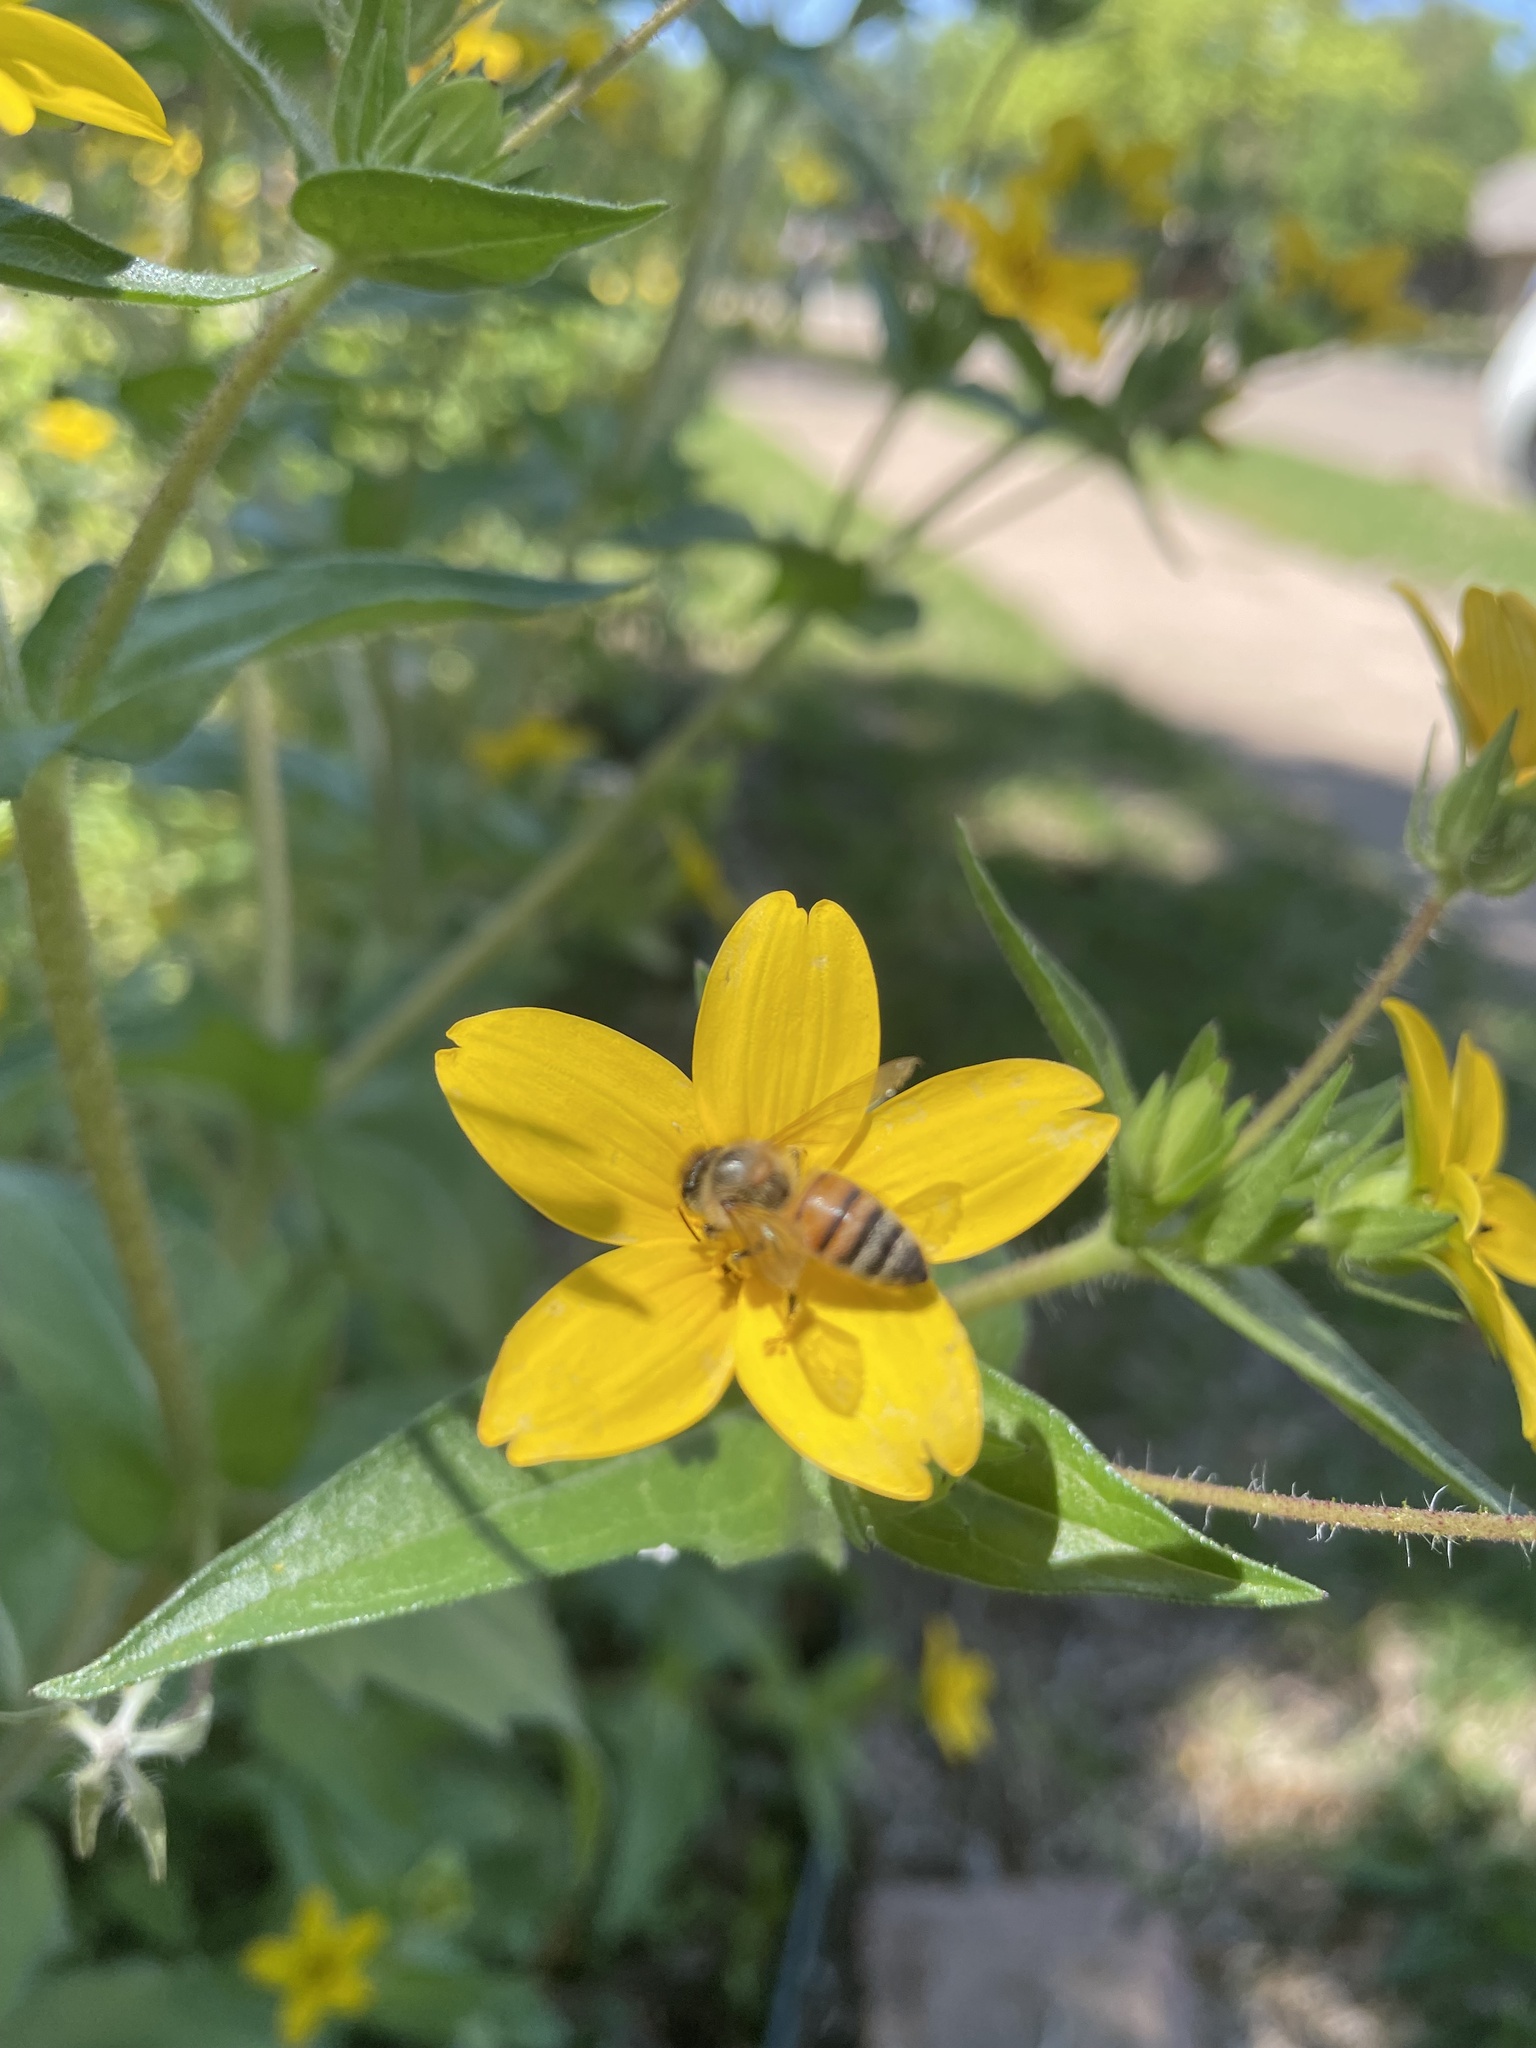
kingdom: Animalia
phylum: Arthropoda
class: Insecta
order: Hymenoptera
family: Apidae
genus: Apis
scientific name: Apis mellifera
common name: Honey bee
